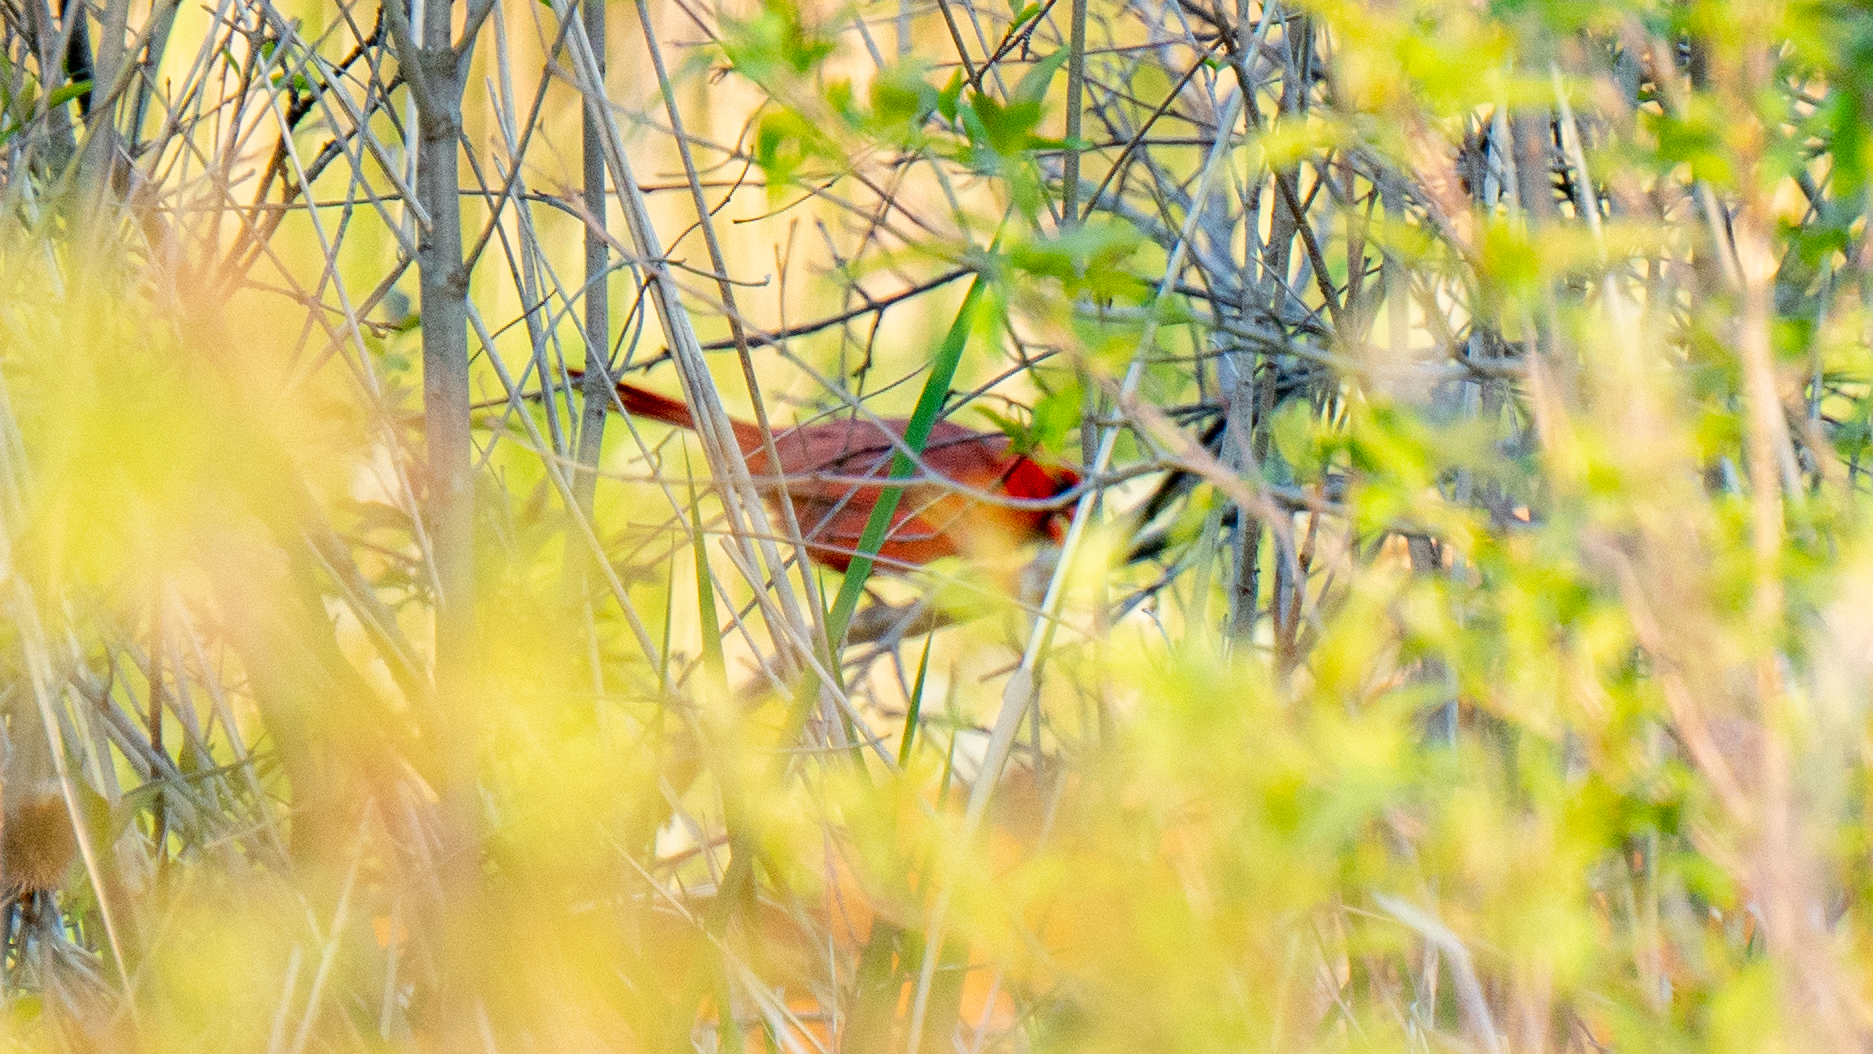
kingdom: Animalia
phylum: Chordata
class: Aves
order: Passeriformes
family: Cardinalidae
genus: Cardinalis
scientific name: Cardinalis cardinalis
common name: Northern cardinal
